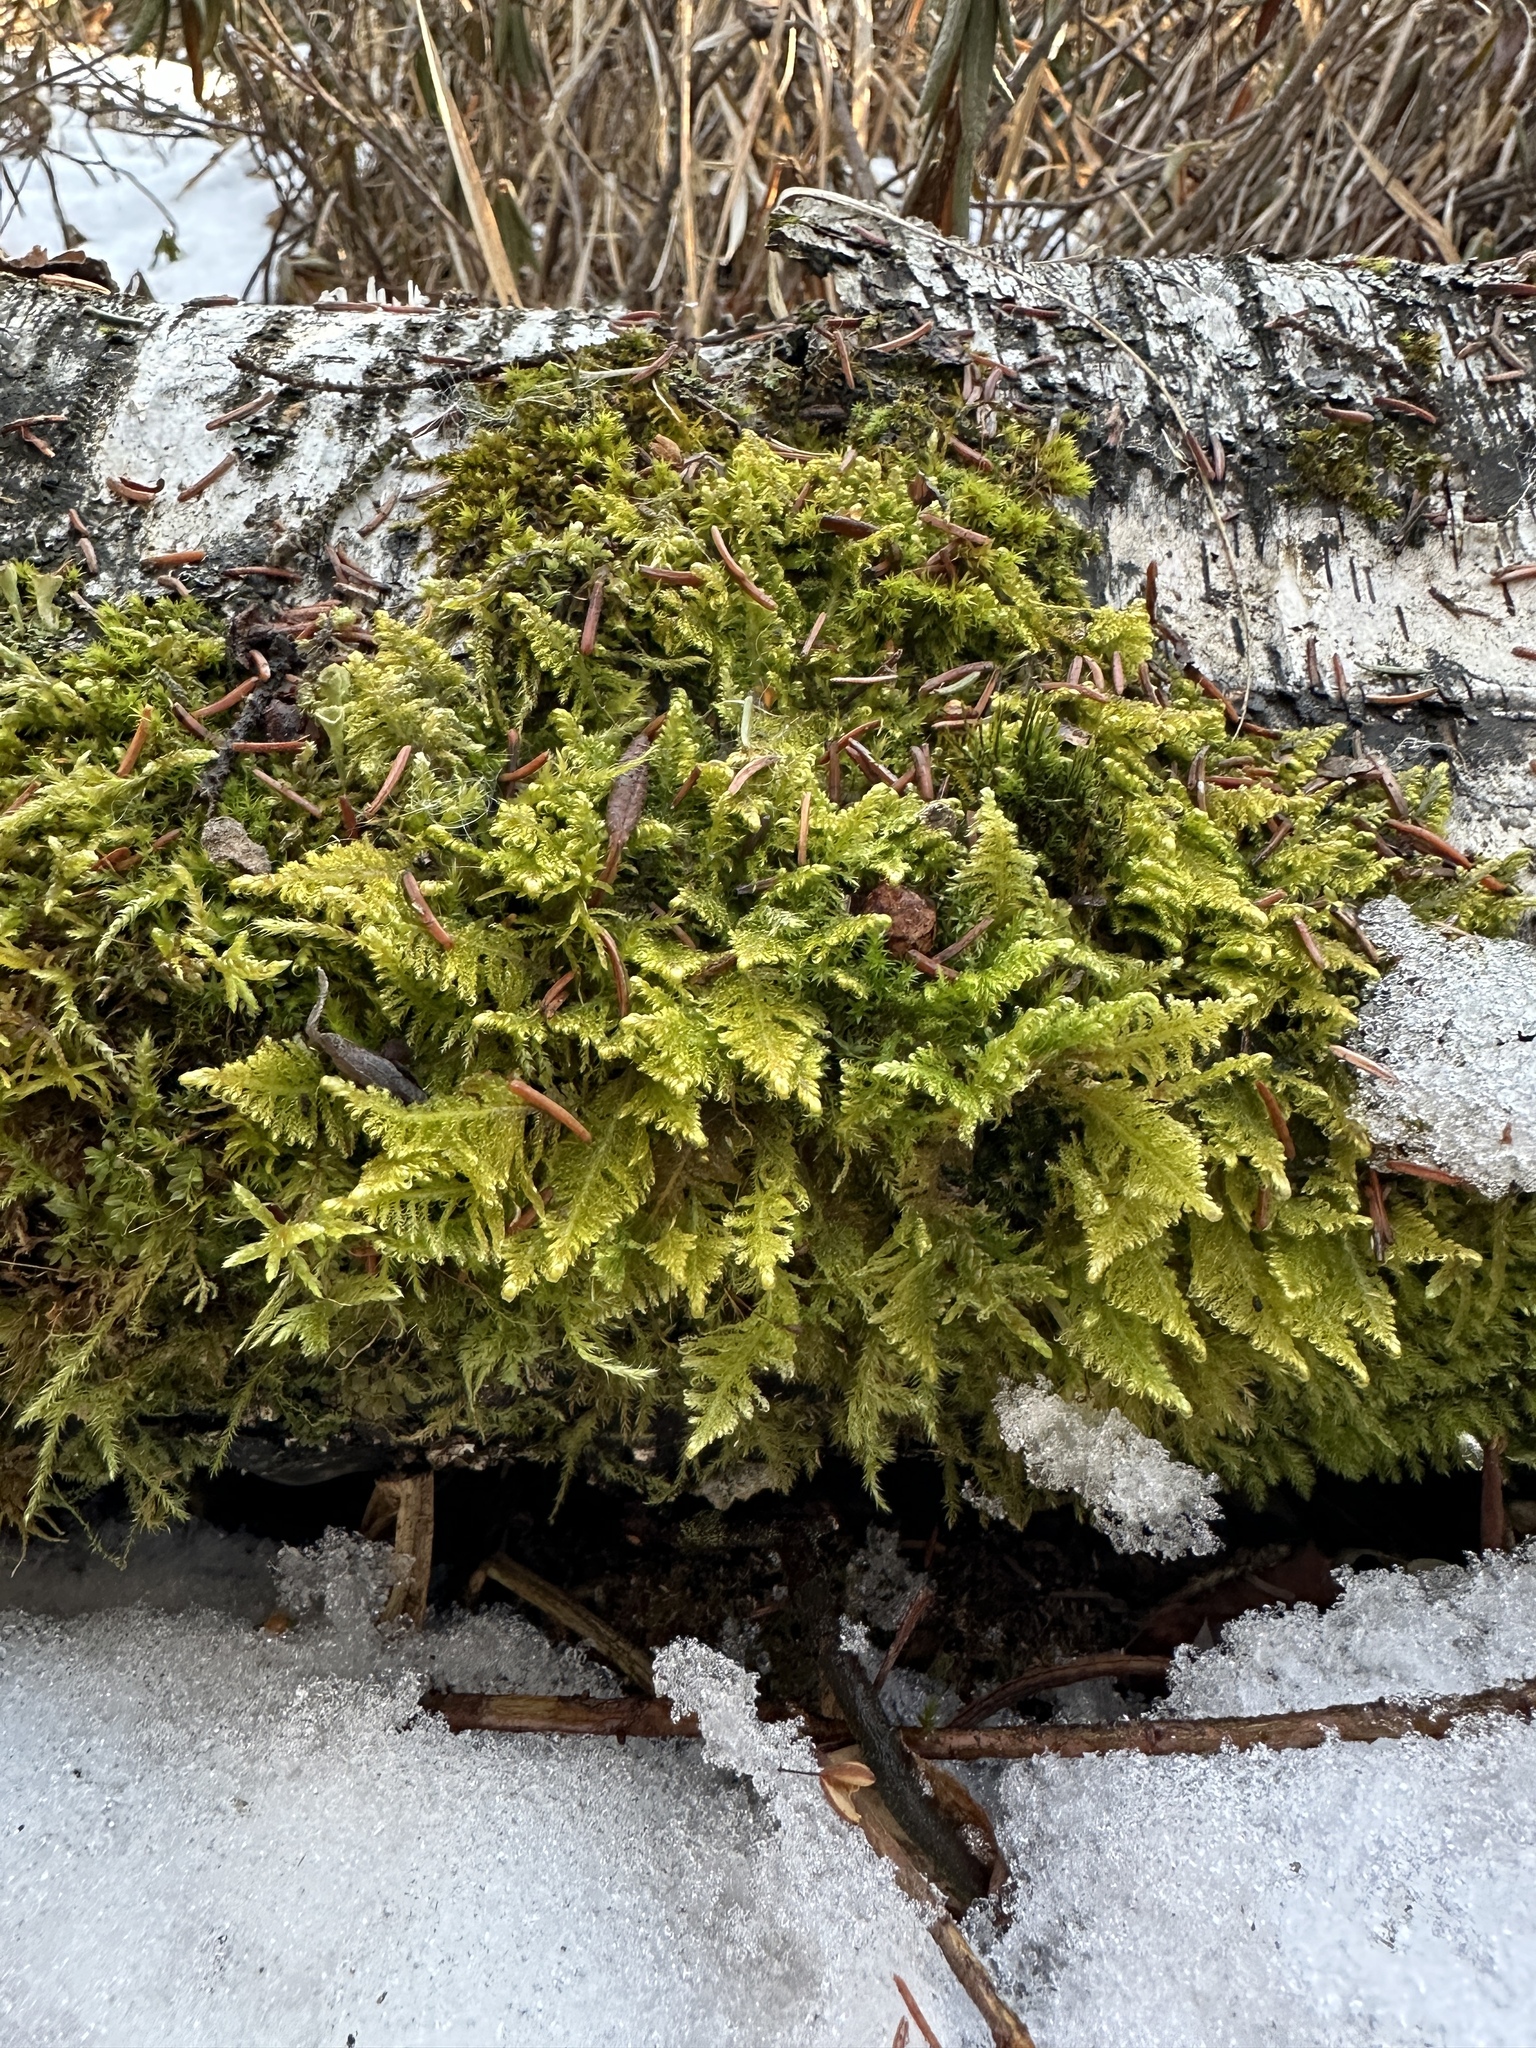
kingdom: Plantae
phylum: Bryophyta
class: Bryopsida
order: Hypnales
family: Pylaisiaceae
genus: Ptilium
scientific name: Ptilium crista-castrensis
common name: Knight's plume moss
